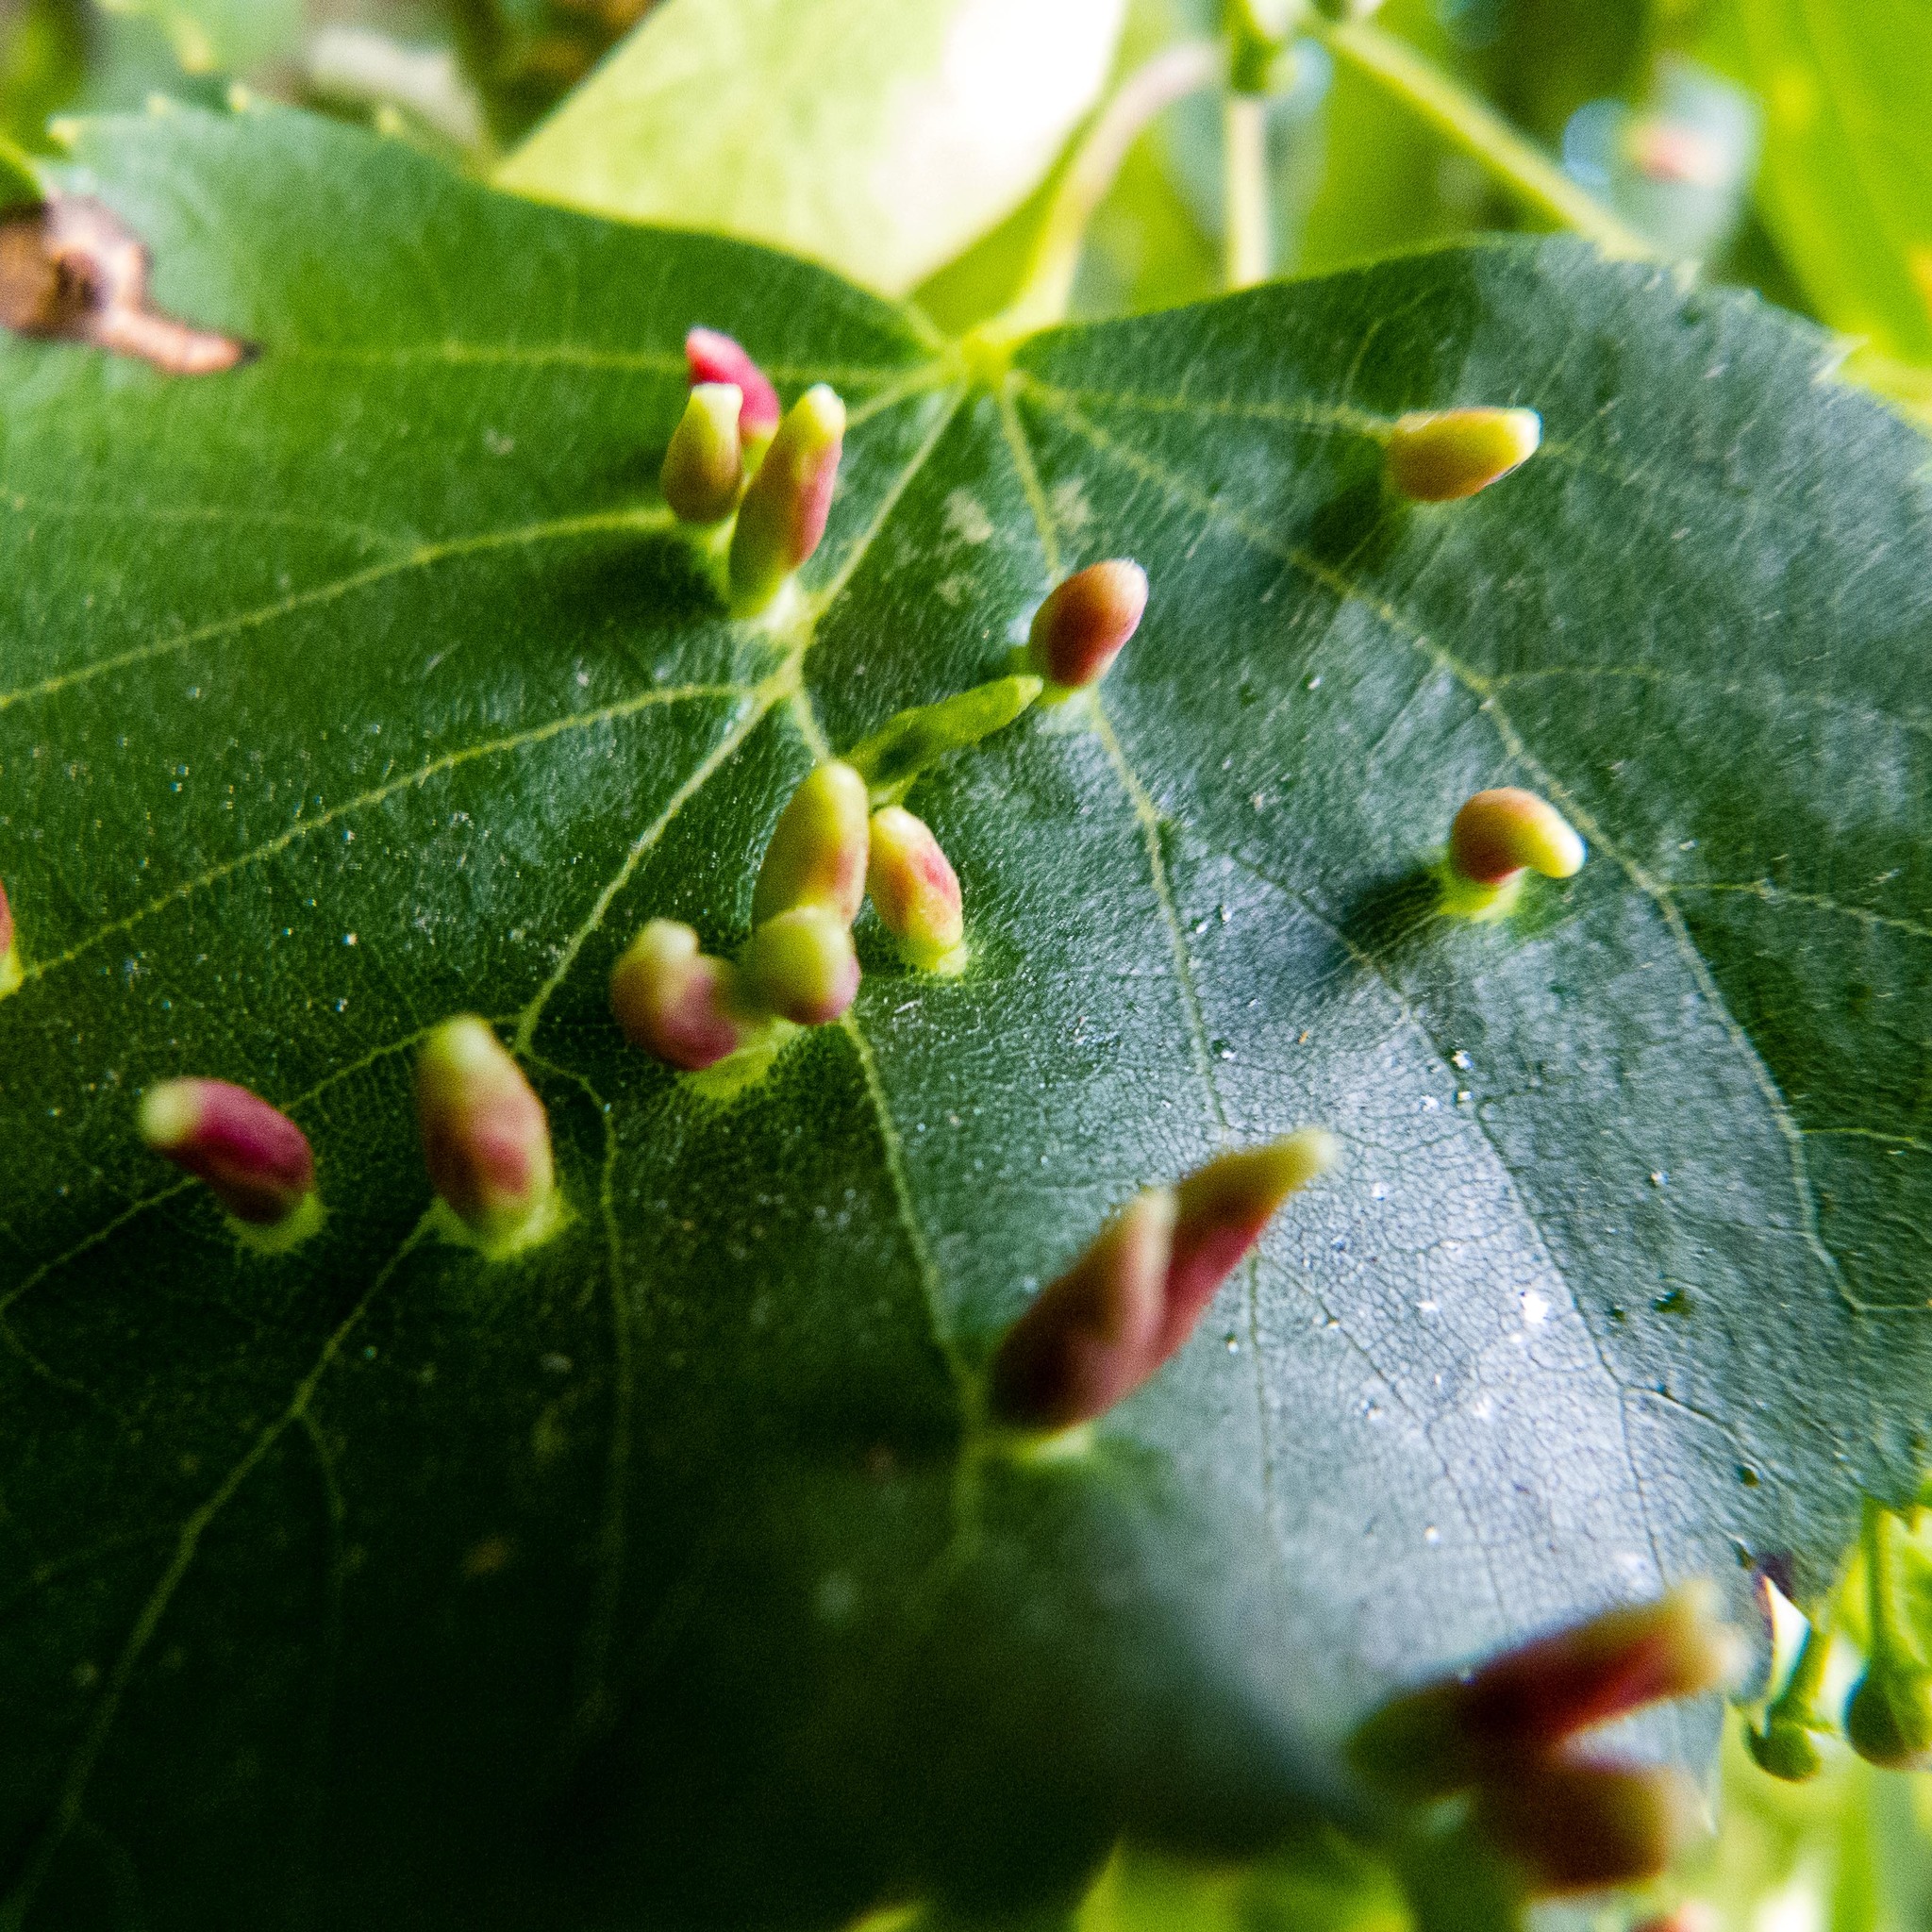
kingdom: Animalia
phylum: Arthropoda
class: Arachnida
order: Trombidiformes
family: Eriophyidae
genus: Eriophyes
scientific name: Eriophyes tiliae
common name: Red nail gall mite
